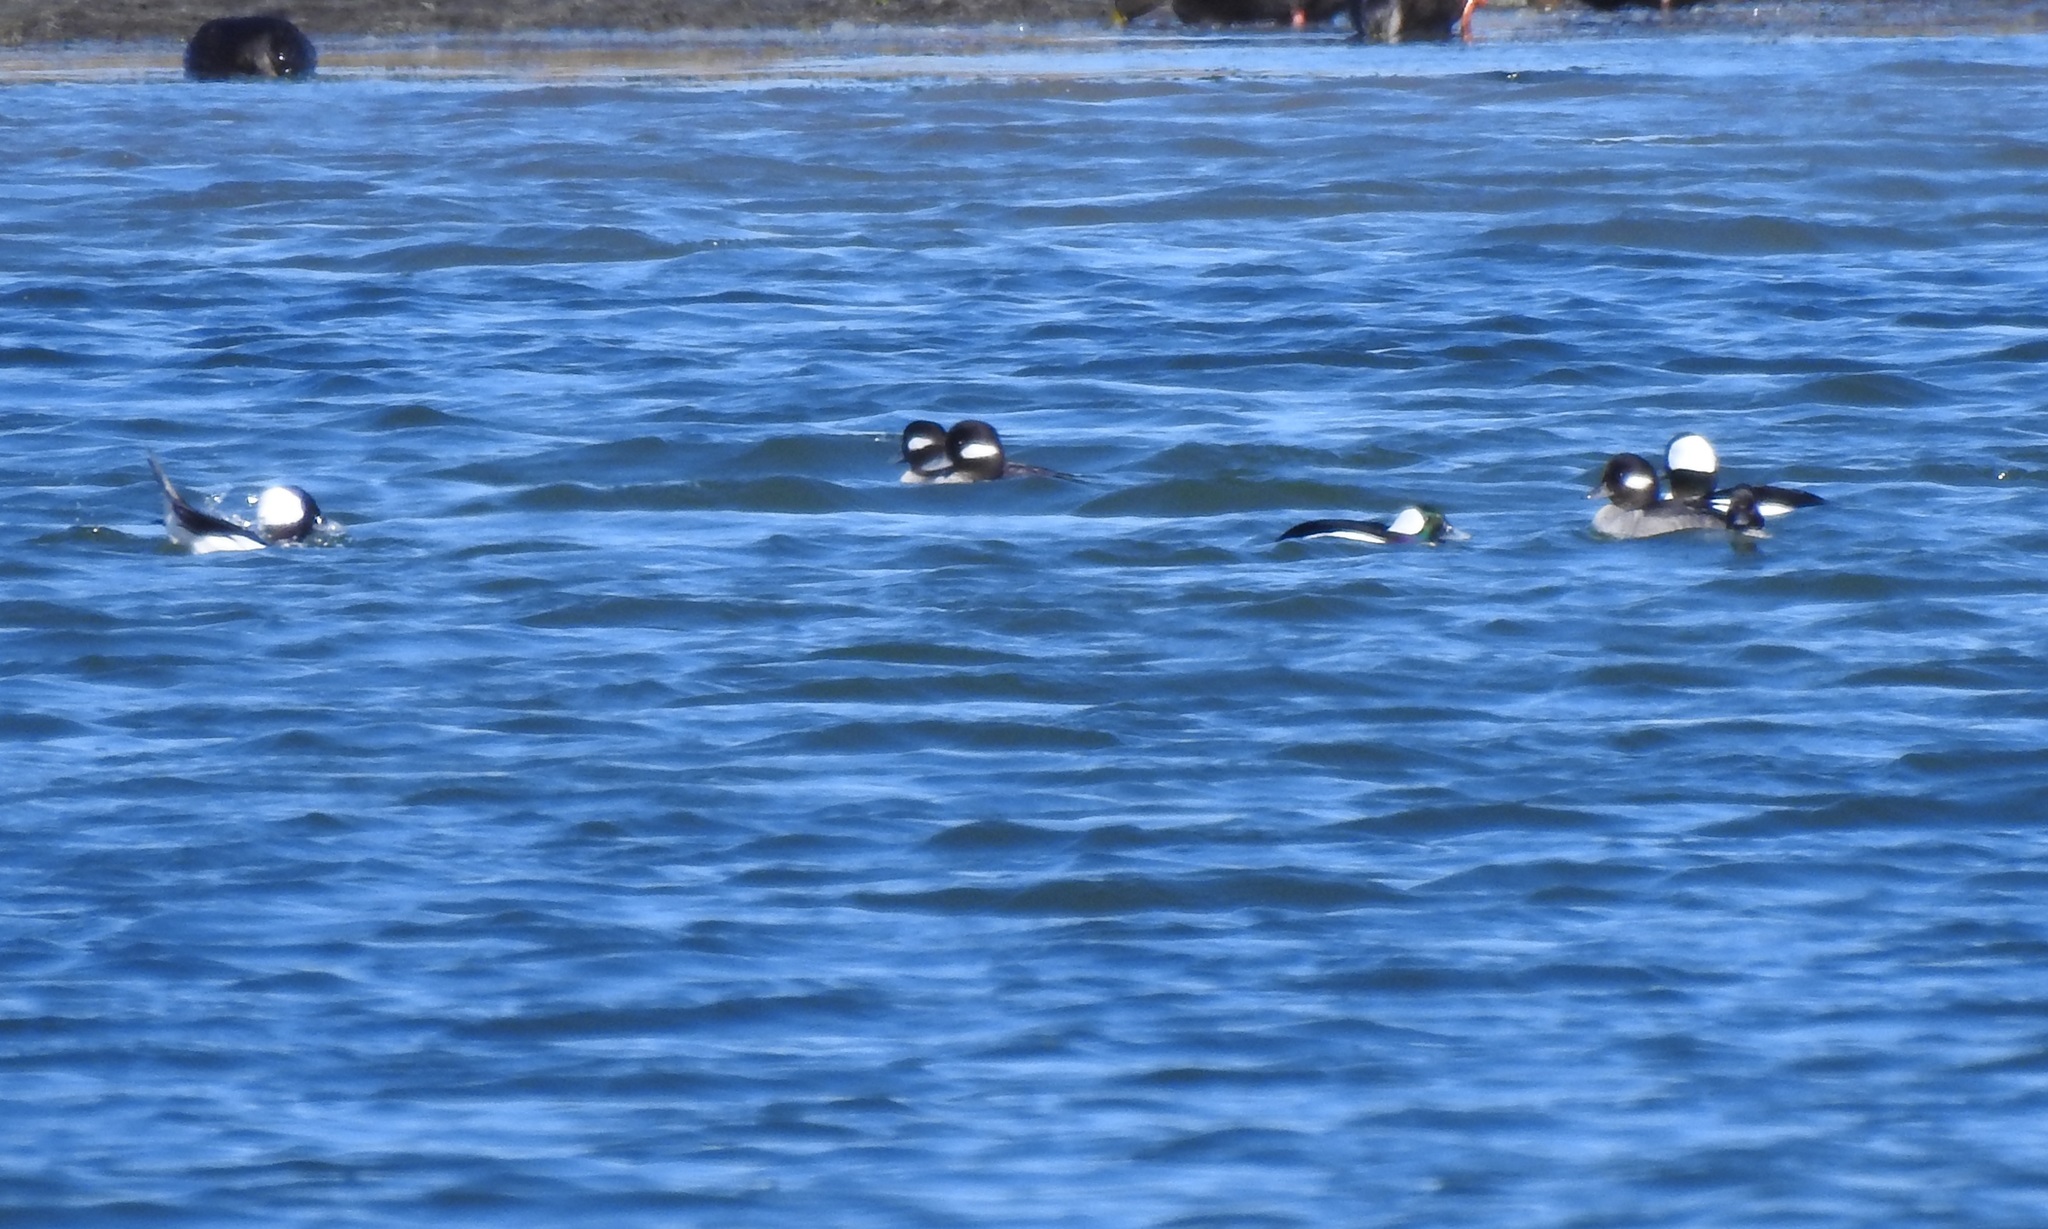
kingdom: Animalia
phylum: Chordata
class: Aves
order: Anseriformes
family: Anatidae
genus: Bucephala
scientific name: Bucephala albeola
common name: Bufflehead
